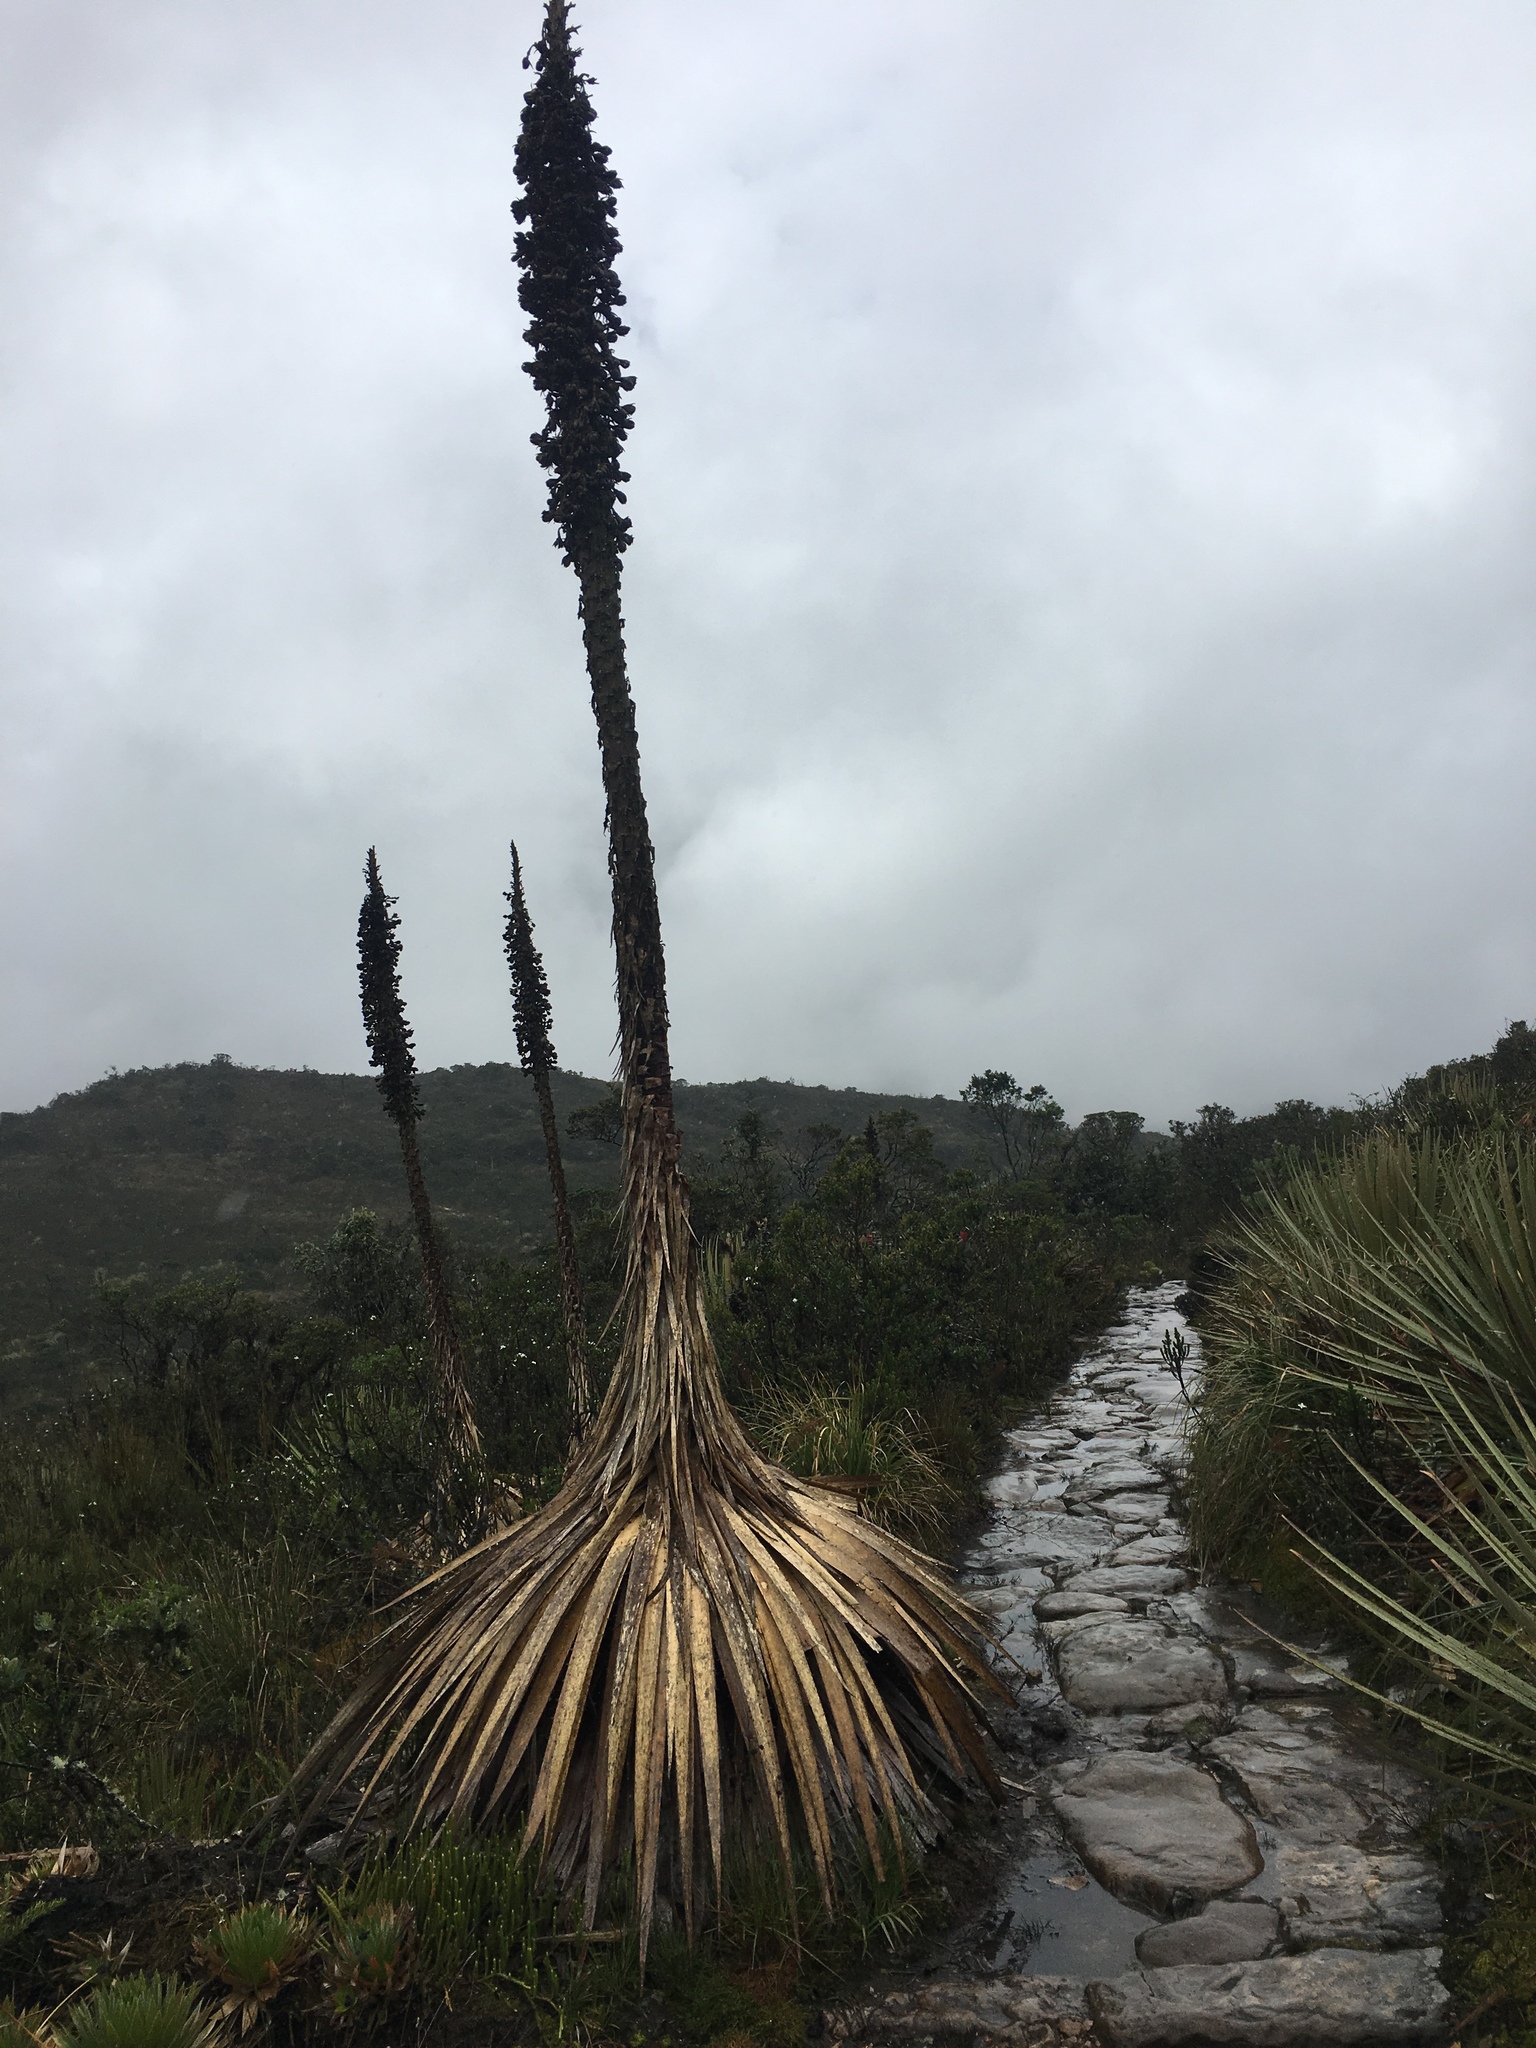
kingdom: Plantae
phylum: Tracheophyta
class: Liliopsida
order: Poales
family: Bromeliaceae
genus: Puya
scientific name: Puya goudotiana
